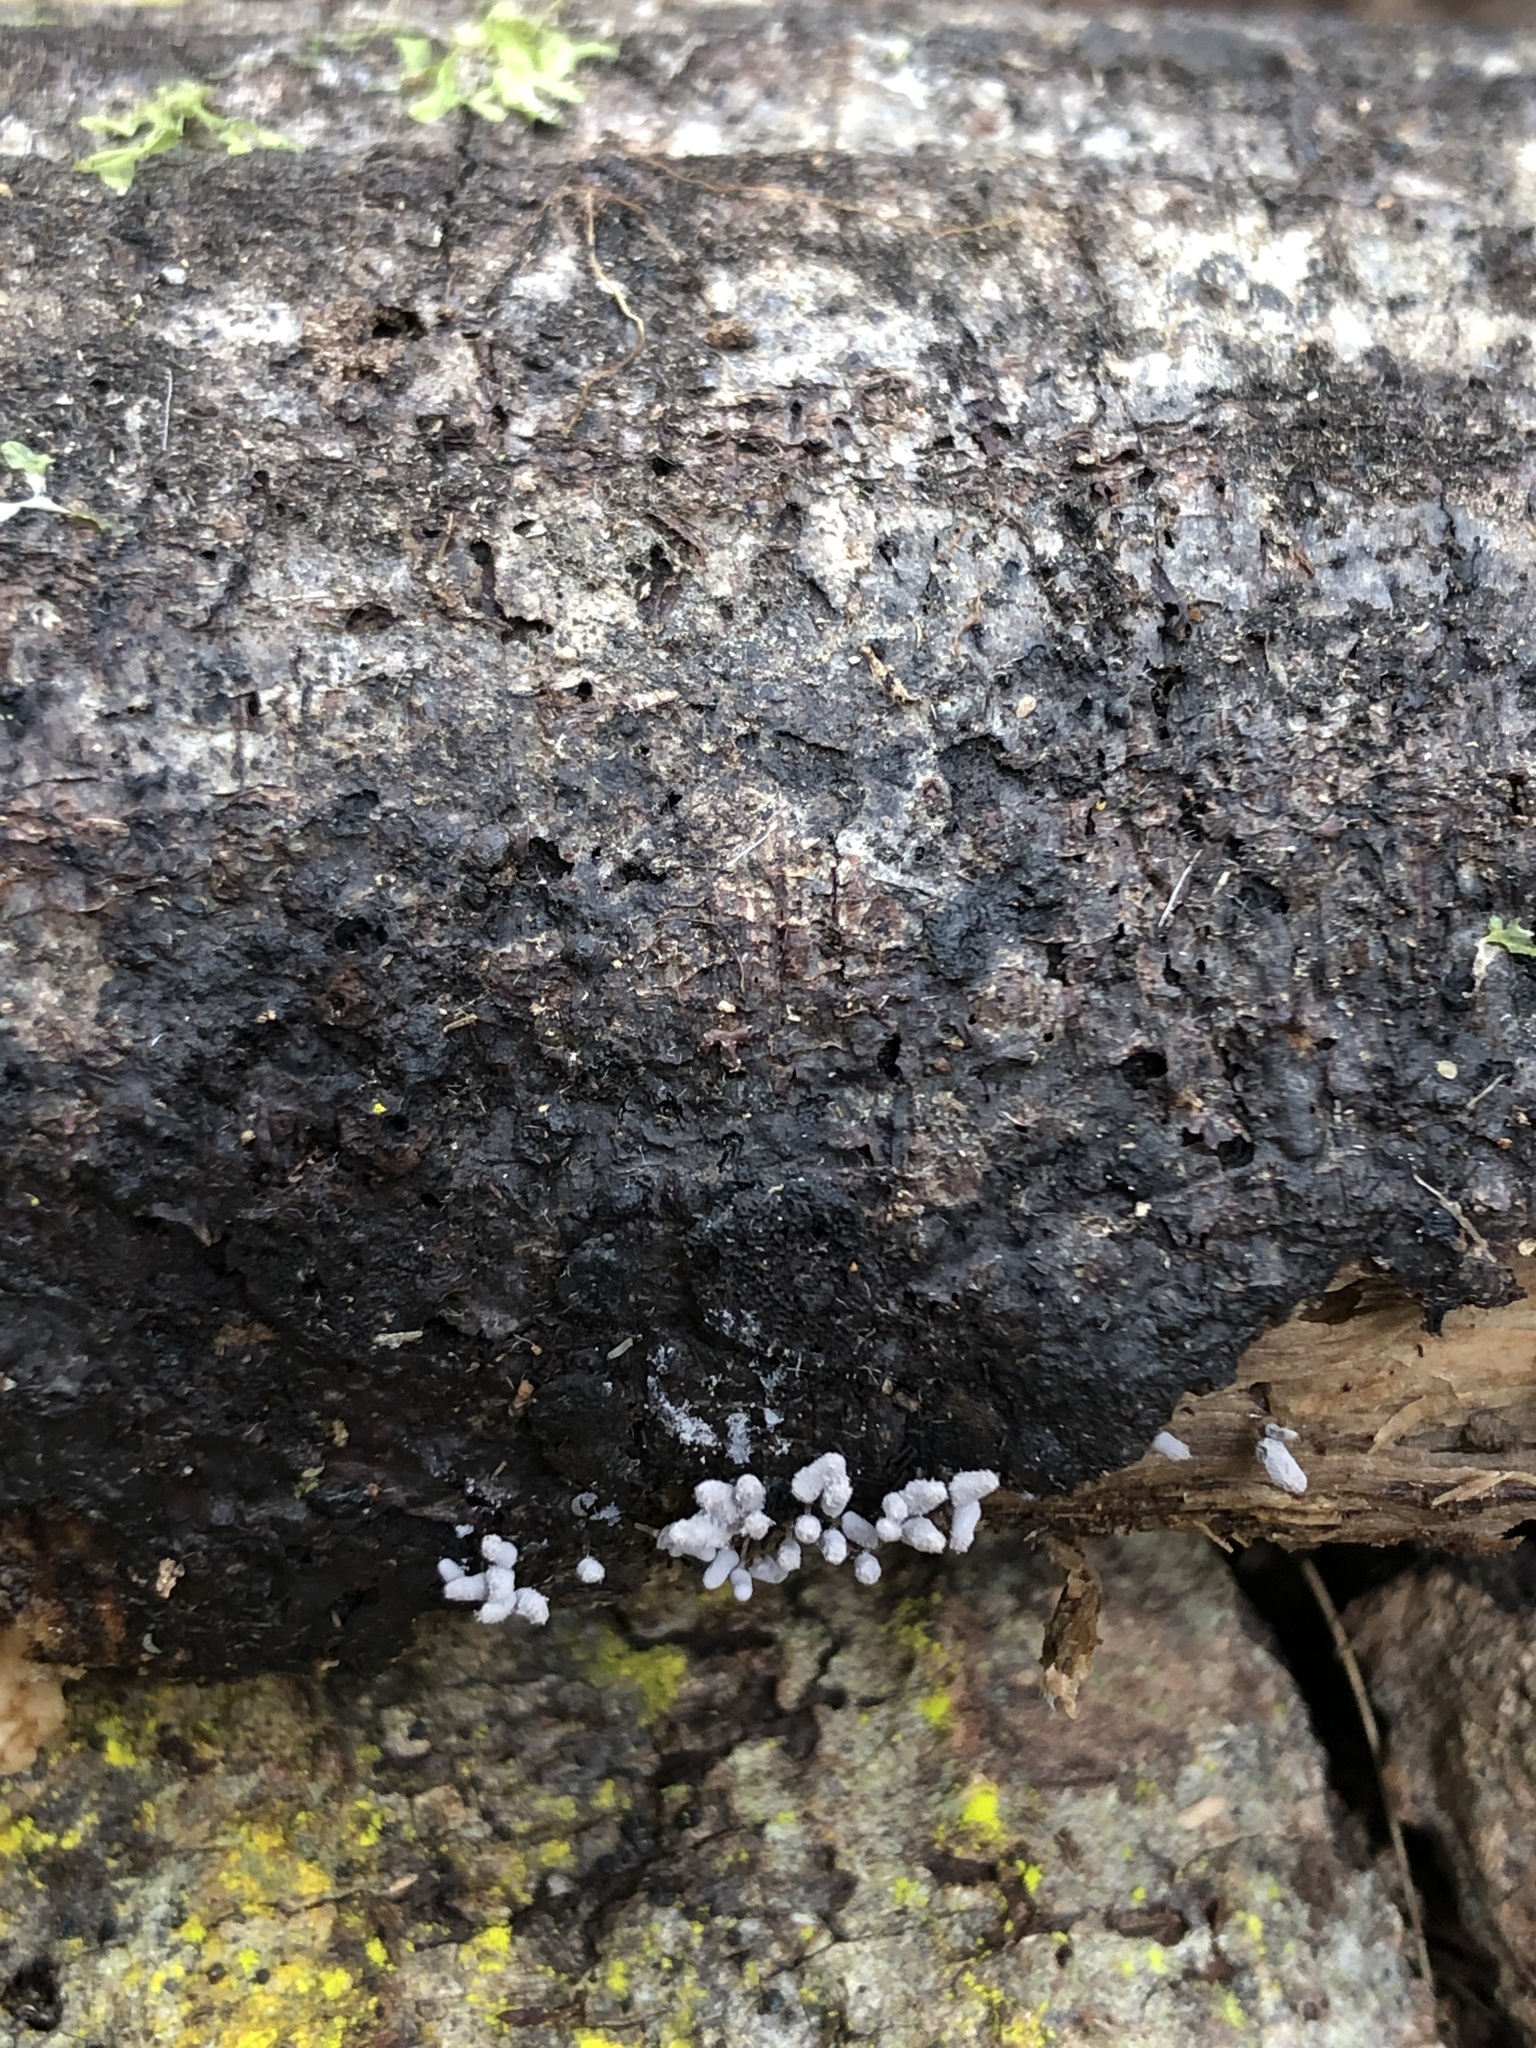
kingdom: Protozoa
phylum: Mycetozoa
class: Myxomycetes
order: Trichiales
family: Arcyriaceae
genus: Arcyria
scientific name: Arcyria cinerea
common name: White carnival candy slime mold
